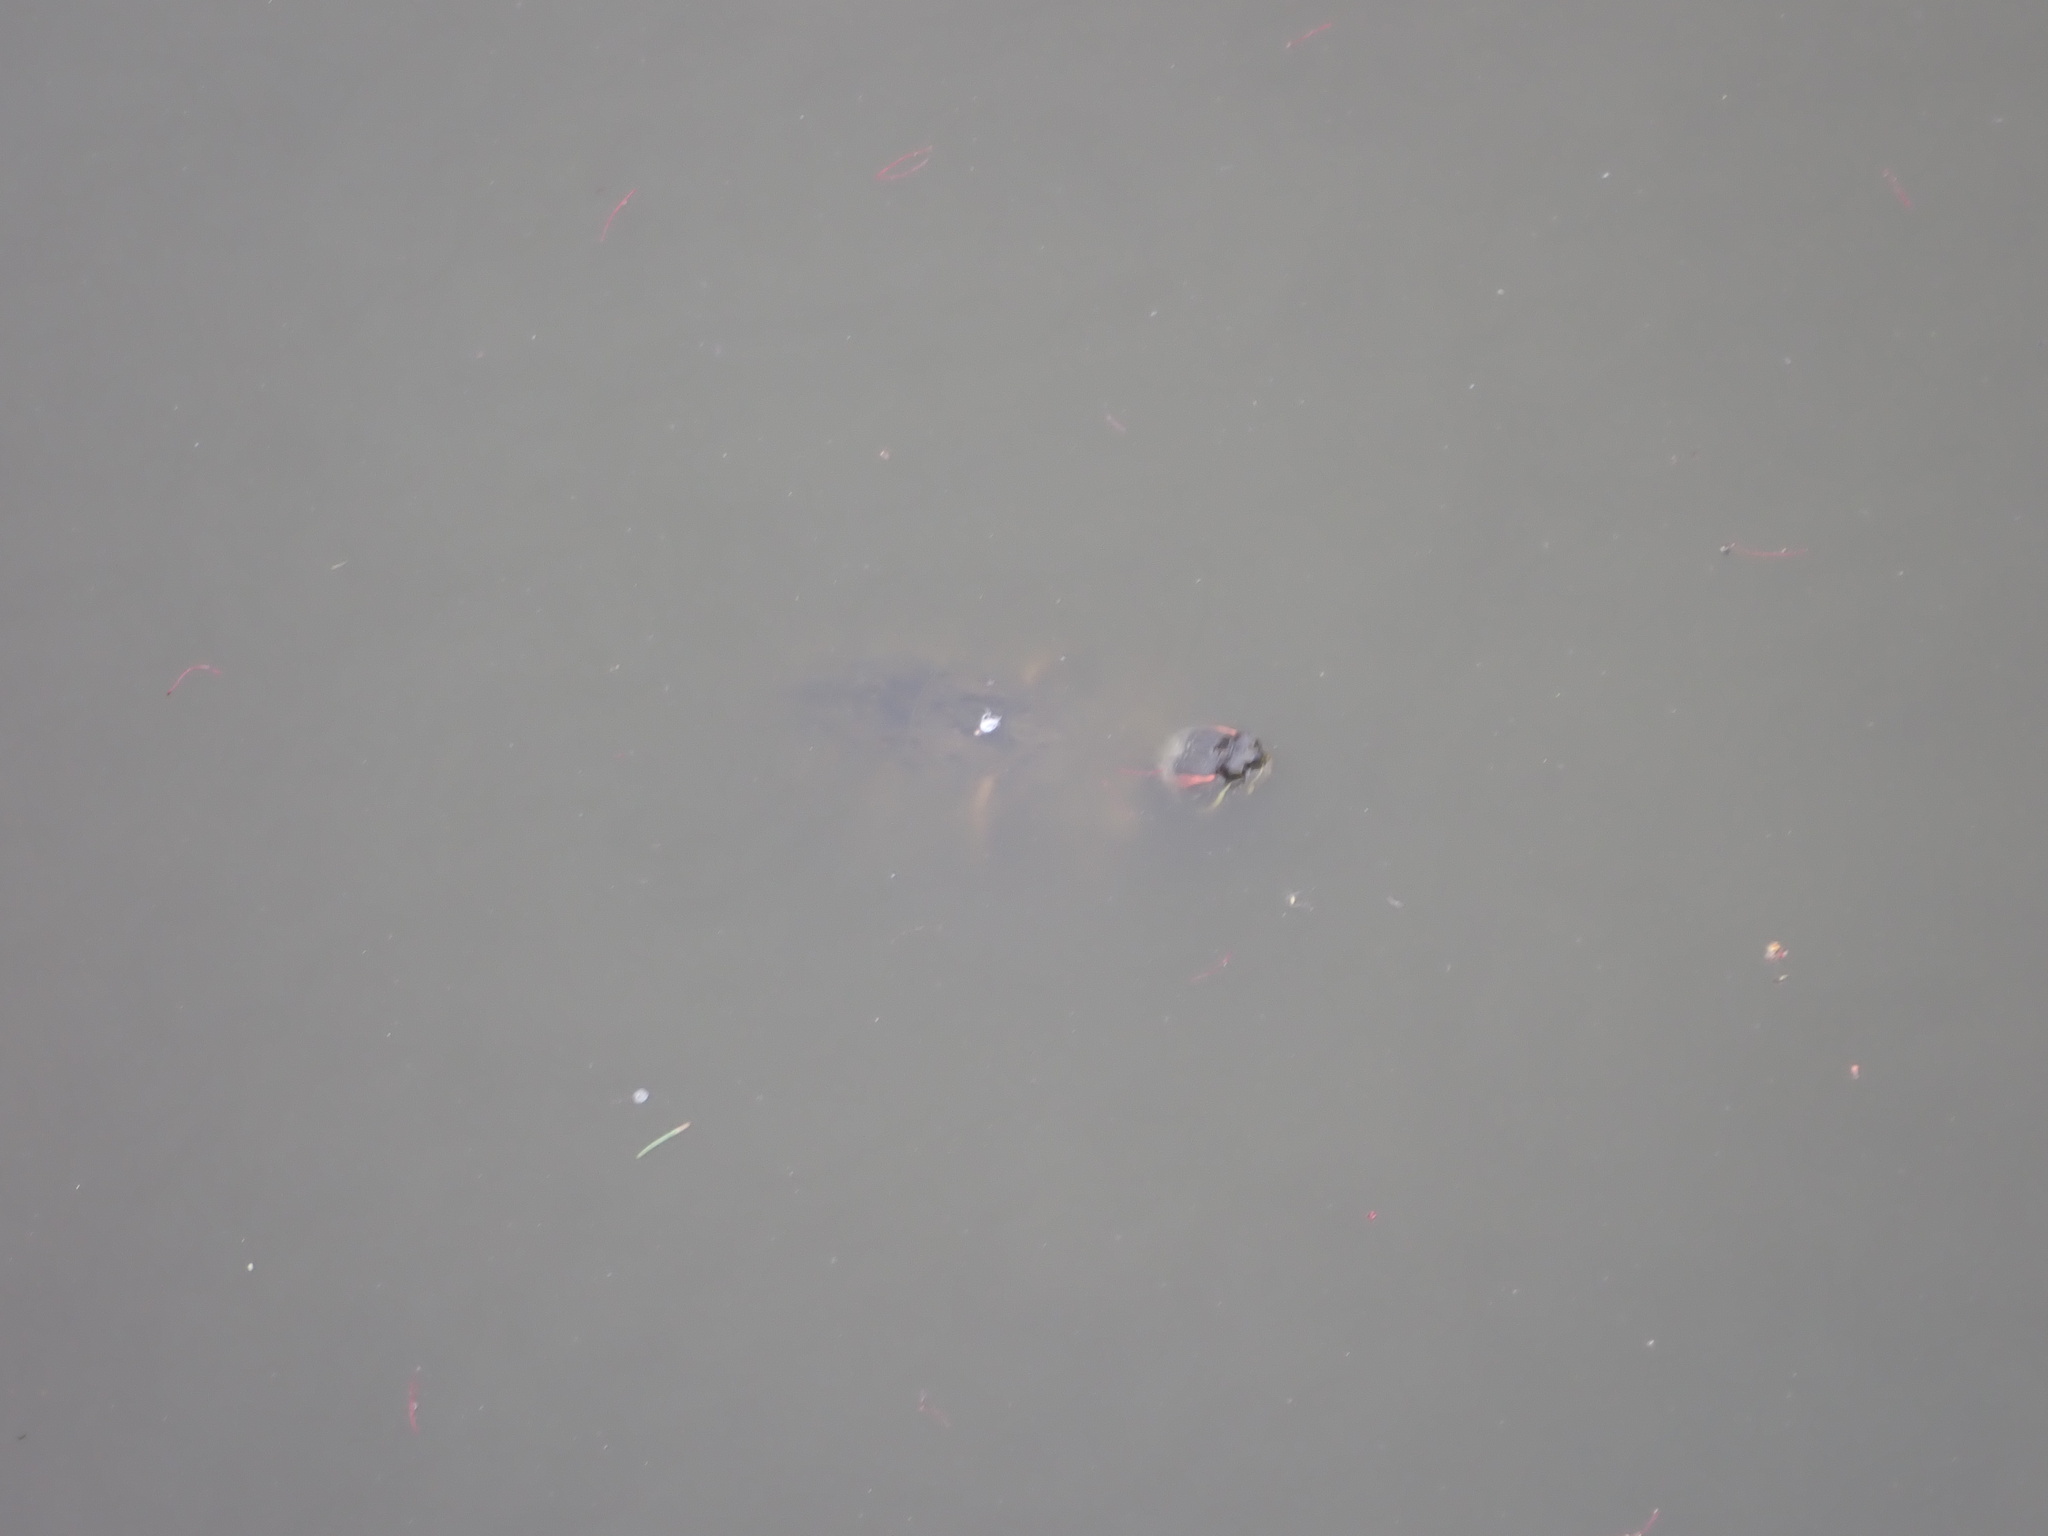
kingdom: Animalia
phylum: Chordata
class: Testudines
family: Emydidae
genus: Trachemys
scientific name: Trachemys scripta
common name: Slider
